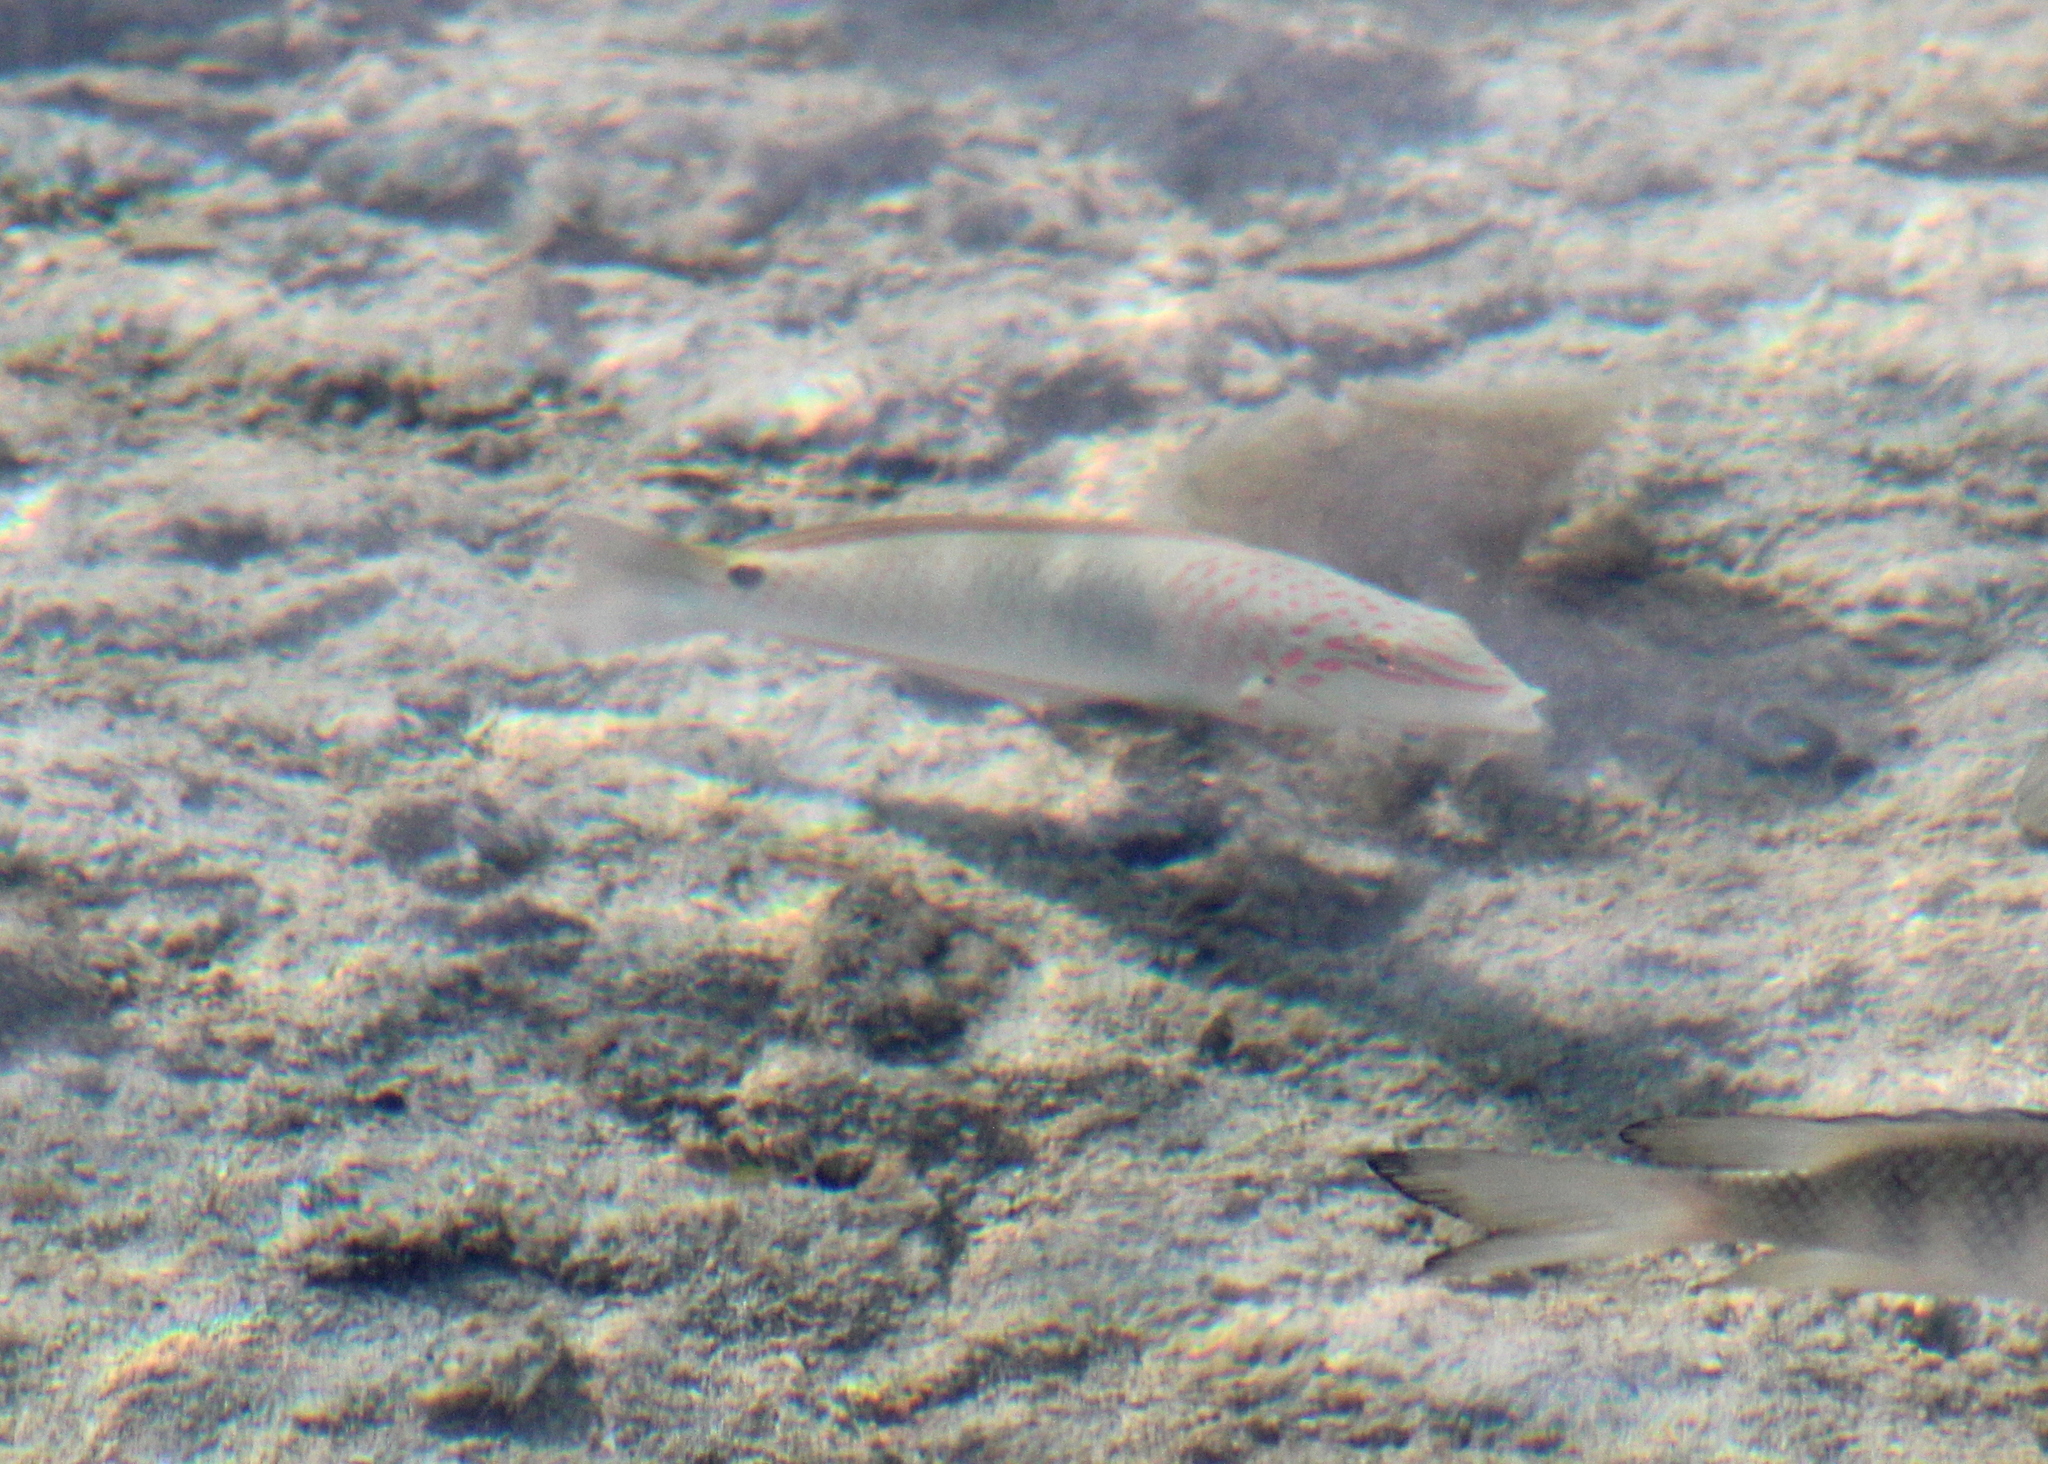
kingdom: Animalia
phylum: Chordata
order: Perciformes
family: Labridae
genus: Halichoeres
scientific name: Halichoeres trimaculatus
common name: Three-spot wrasse
